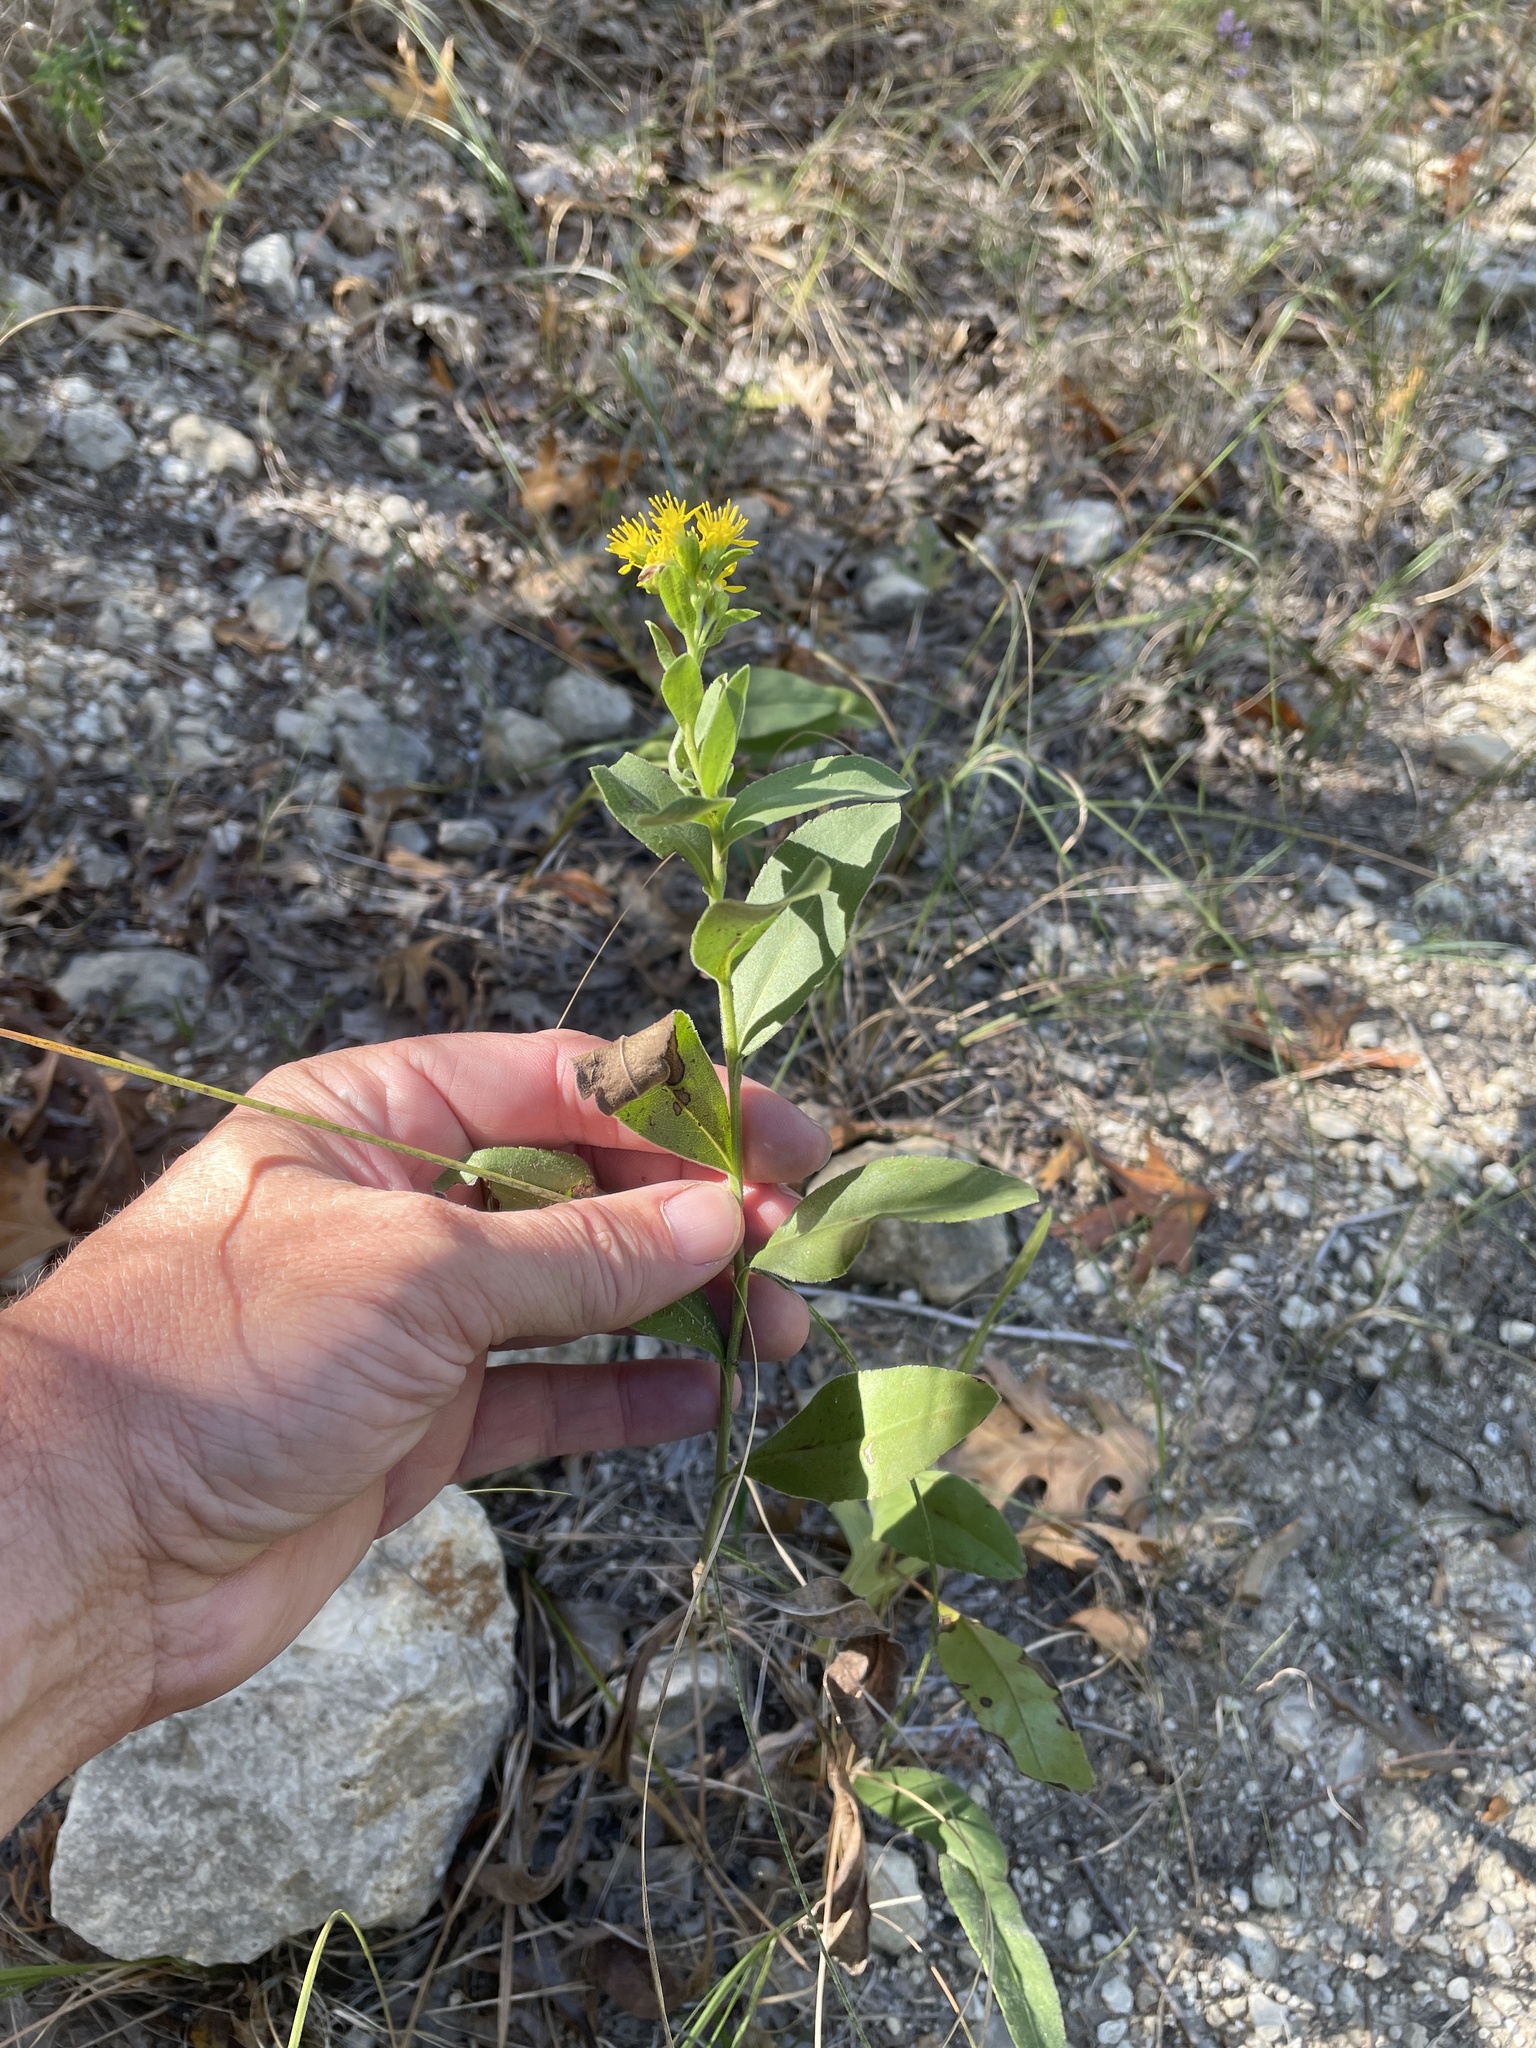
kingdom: Plantae
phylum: Tracheophyta
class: Magnoliopsida
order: Asterales
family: Asteraceae
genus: Solidago
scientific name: Solidago rigida
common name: Rigid goldenrod
